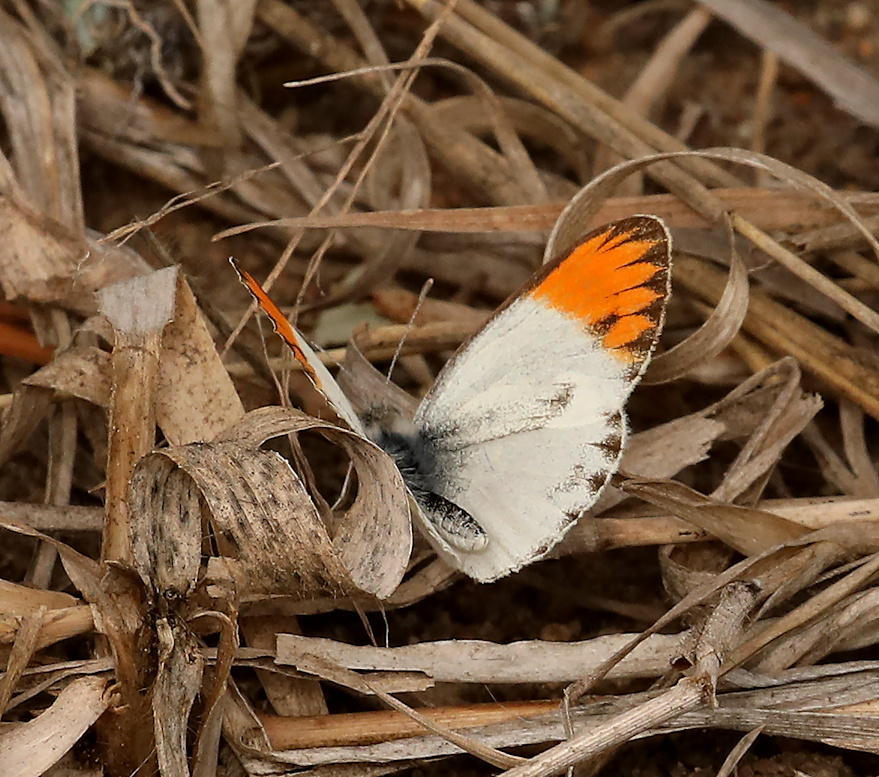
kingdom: Animalia
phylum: Arthropoda
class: Insecta
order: Lepidoptera
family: Pieridae
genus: Colotis
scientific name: Colotis evagore
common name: Desert orange-tip
